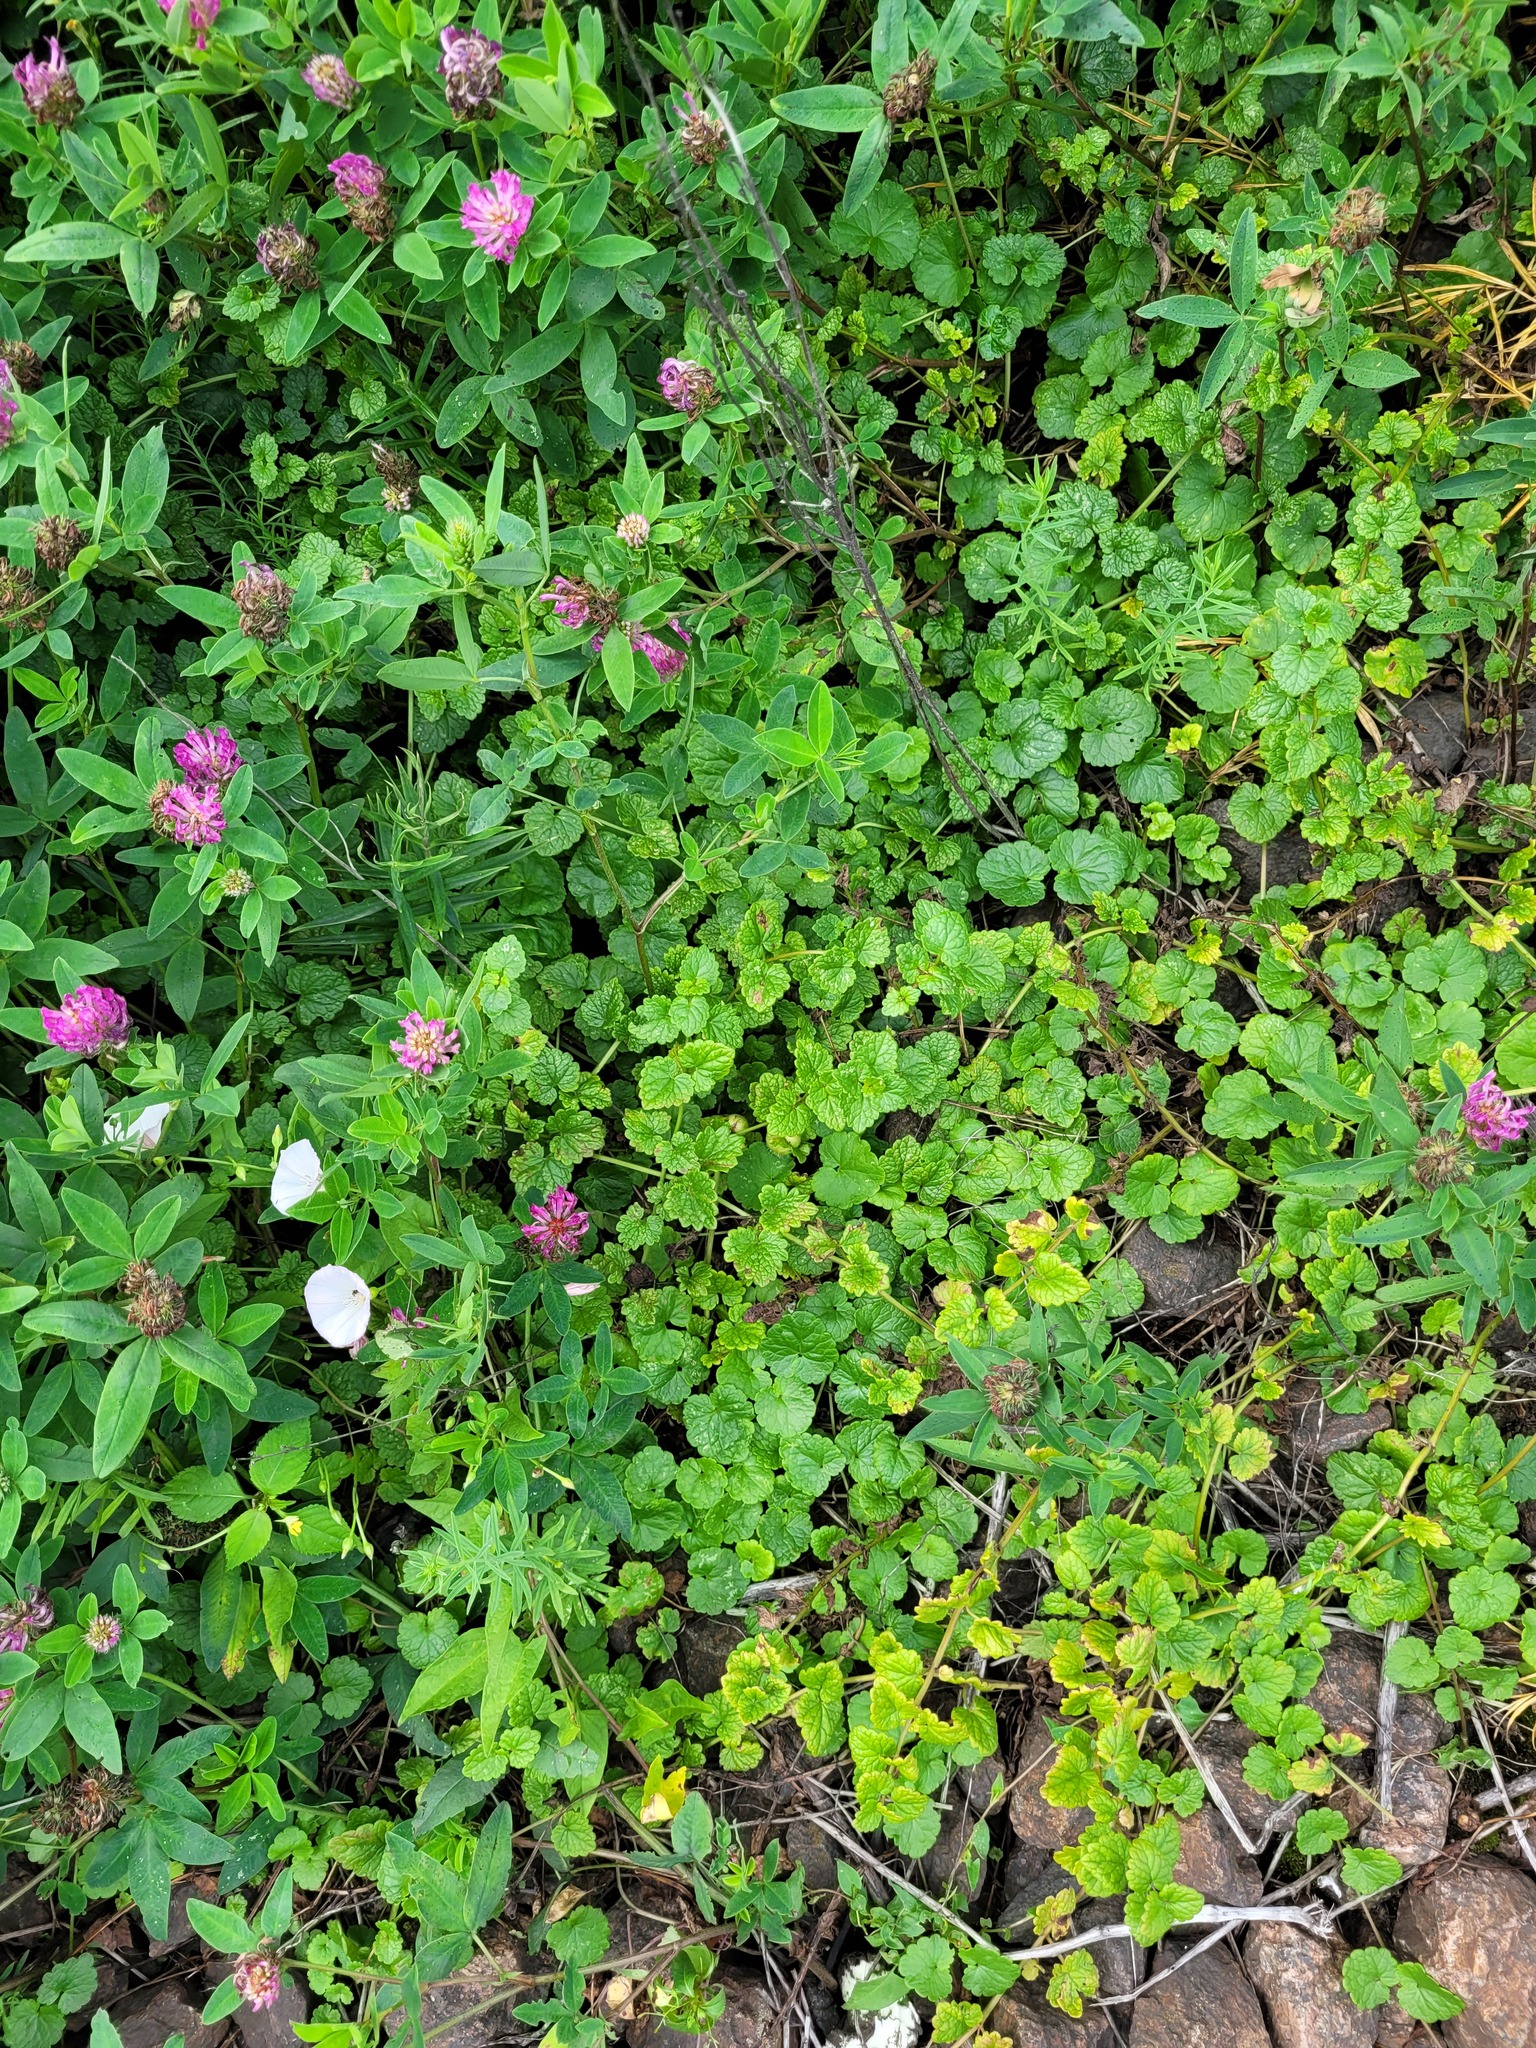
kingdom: Plantae
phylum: Tracheophyta
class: Magnoliopsida
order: Lamiales
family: Lamiaceae
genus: Glechoma
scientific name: Glechoma hederacea
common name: Ground ivy
